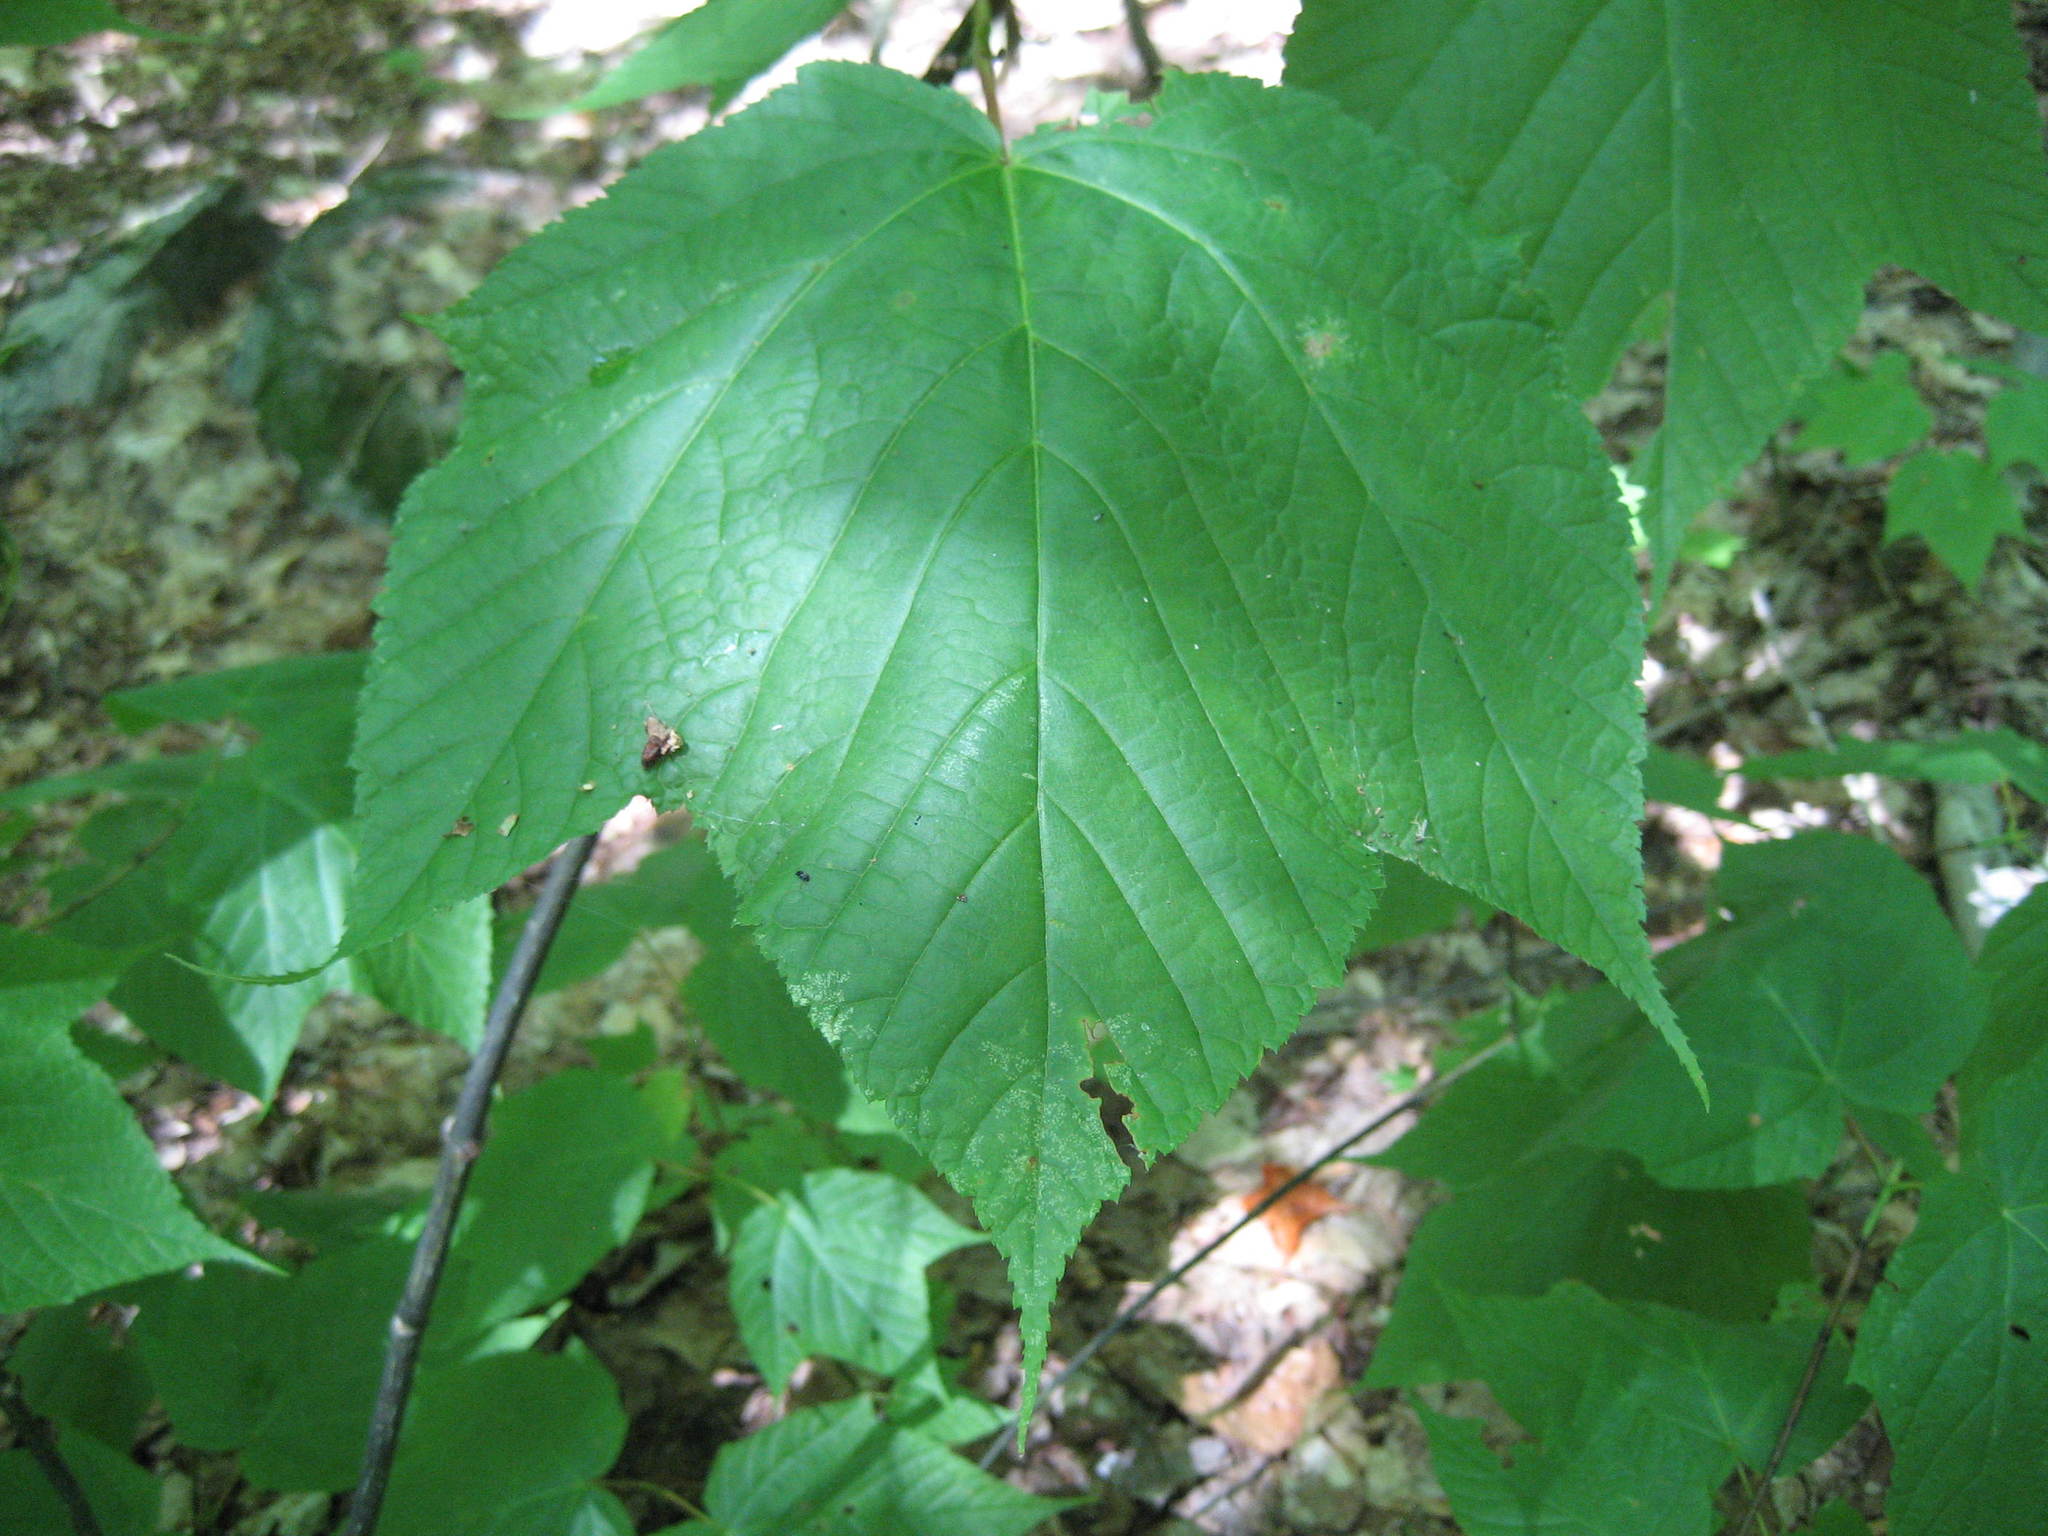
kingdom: Plantae
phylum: Tracheophyta
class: Magnoliopsida
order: Sapindales
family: Sapindaceae
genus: Acer
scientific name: Acer pensylvanicum
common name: Moosewood
